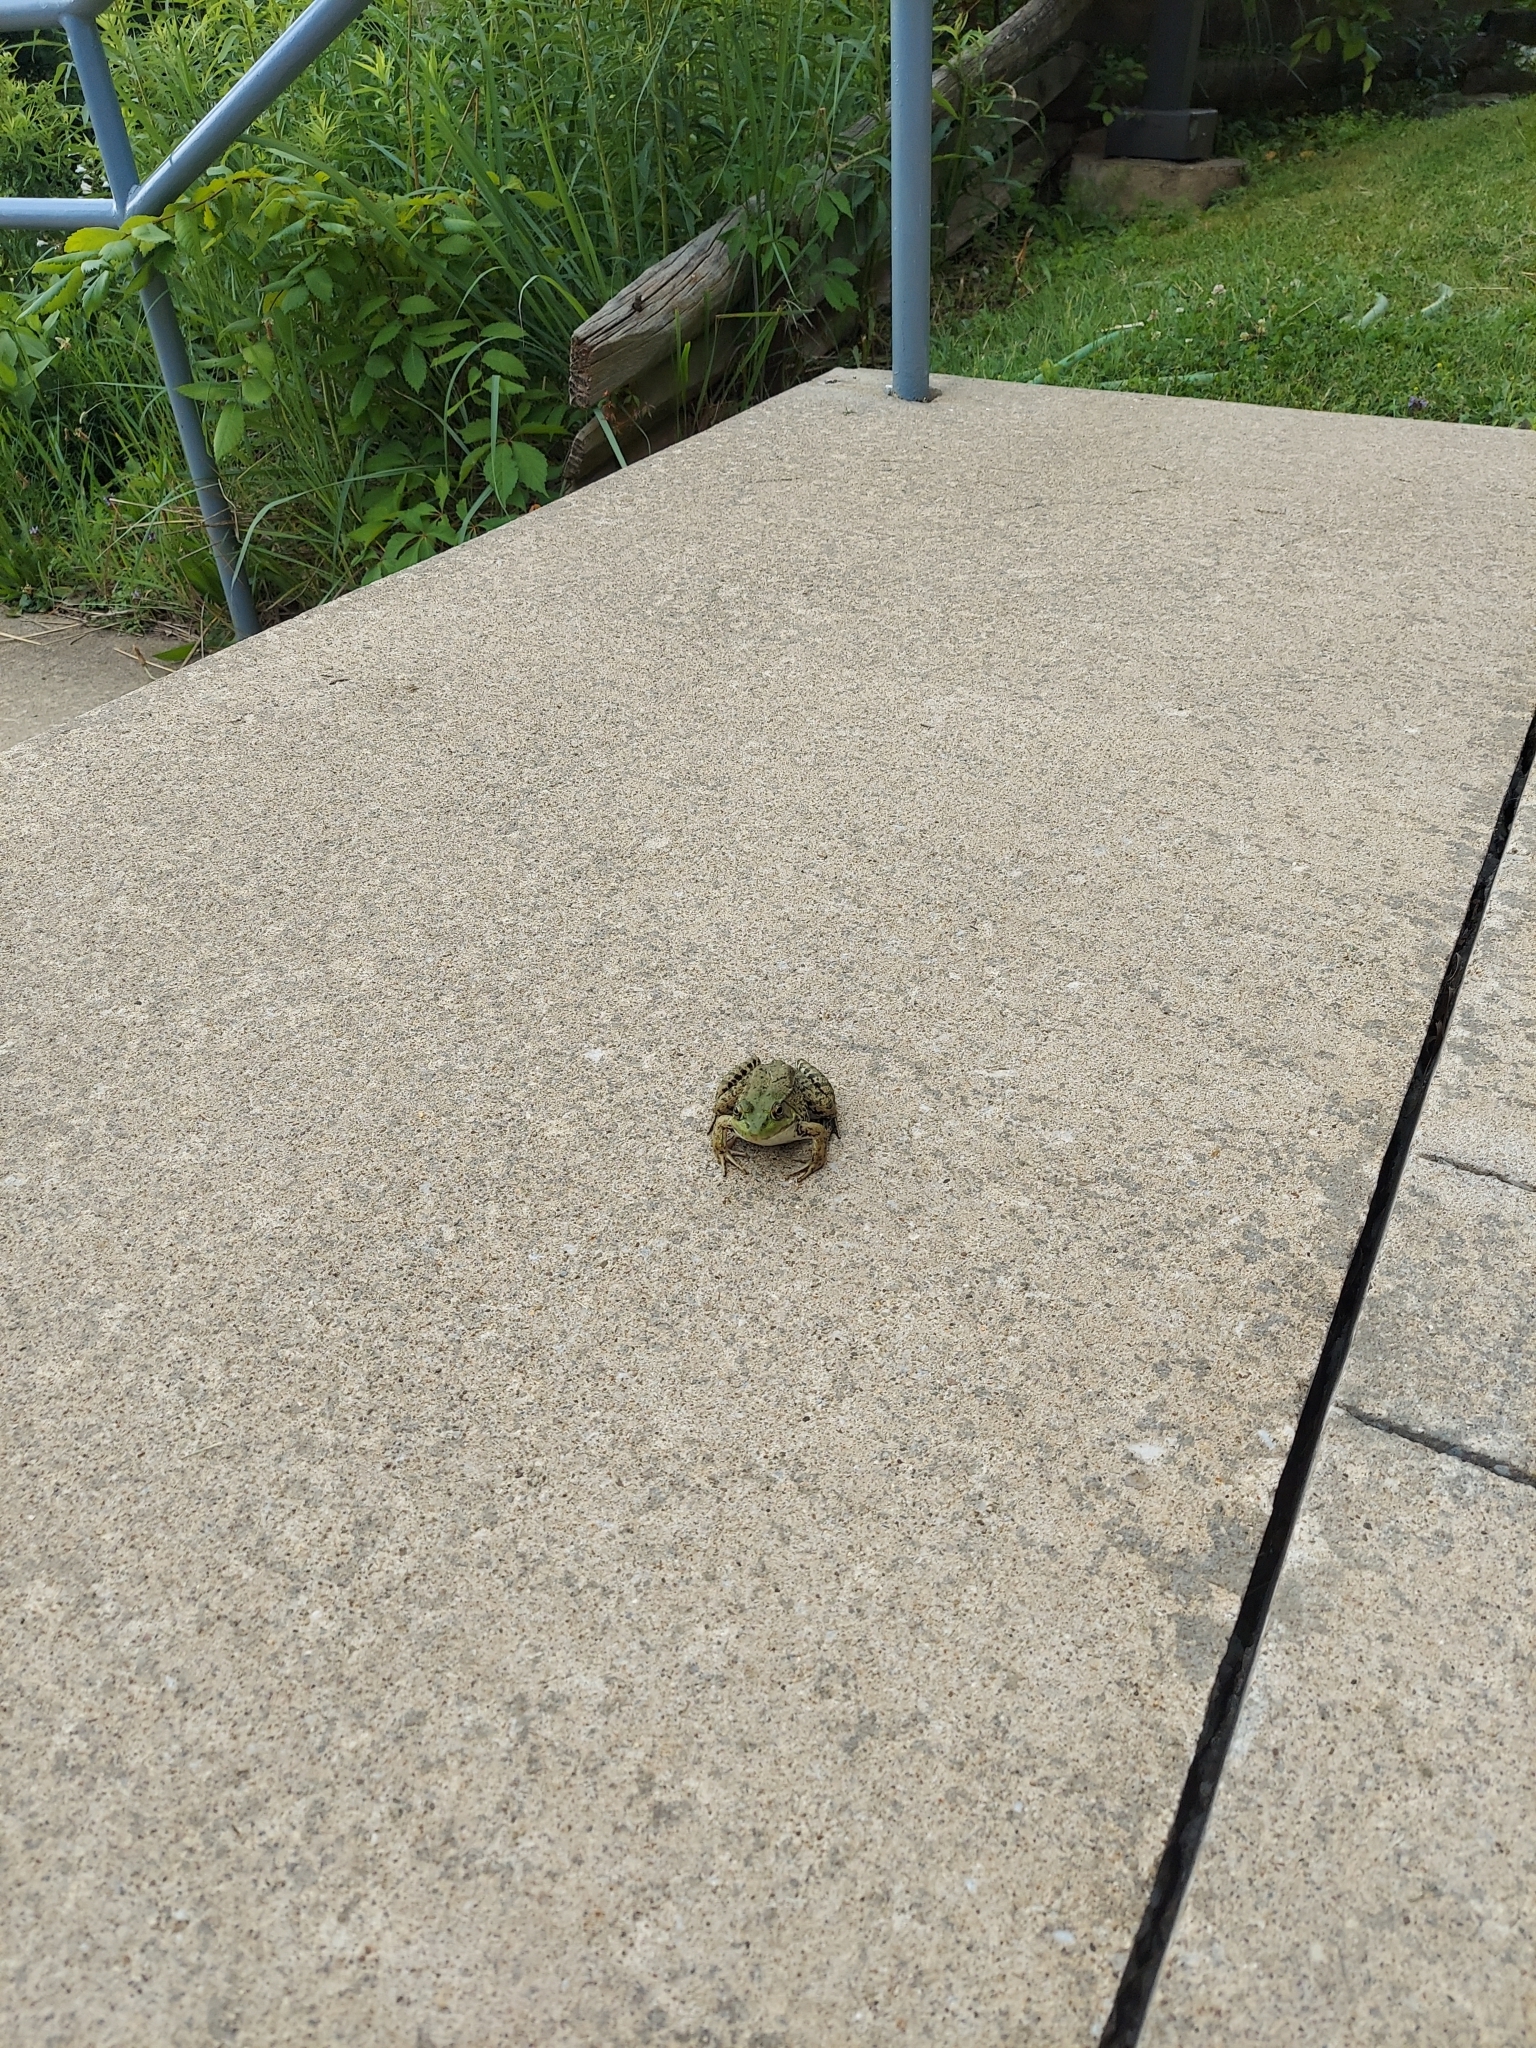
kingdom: Animalia
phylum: Chordata
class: Amphibia
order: Anura
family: Ranidae
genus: Lithobates
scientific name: Lithobates clamitans
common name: Green frog
